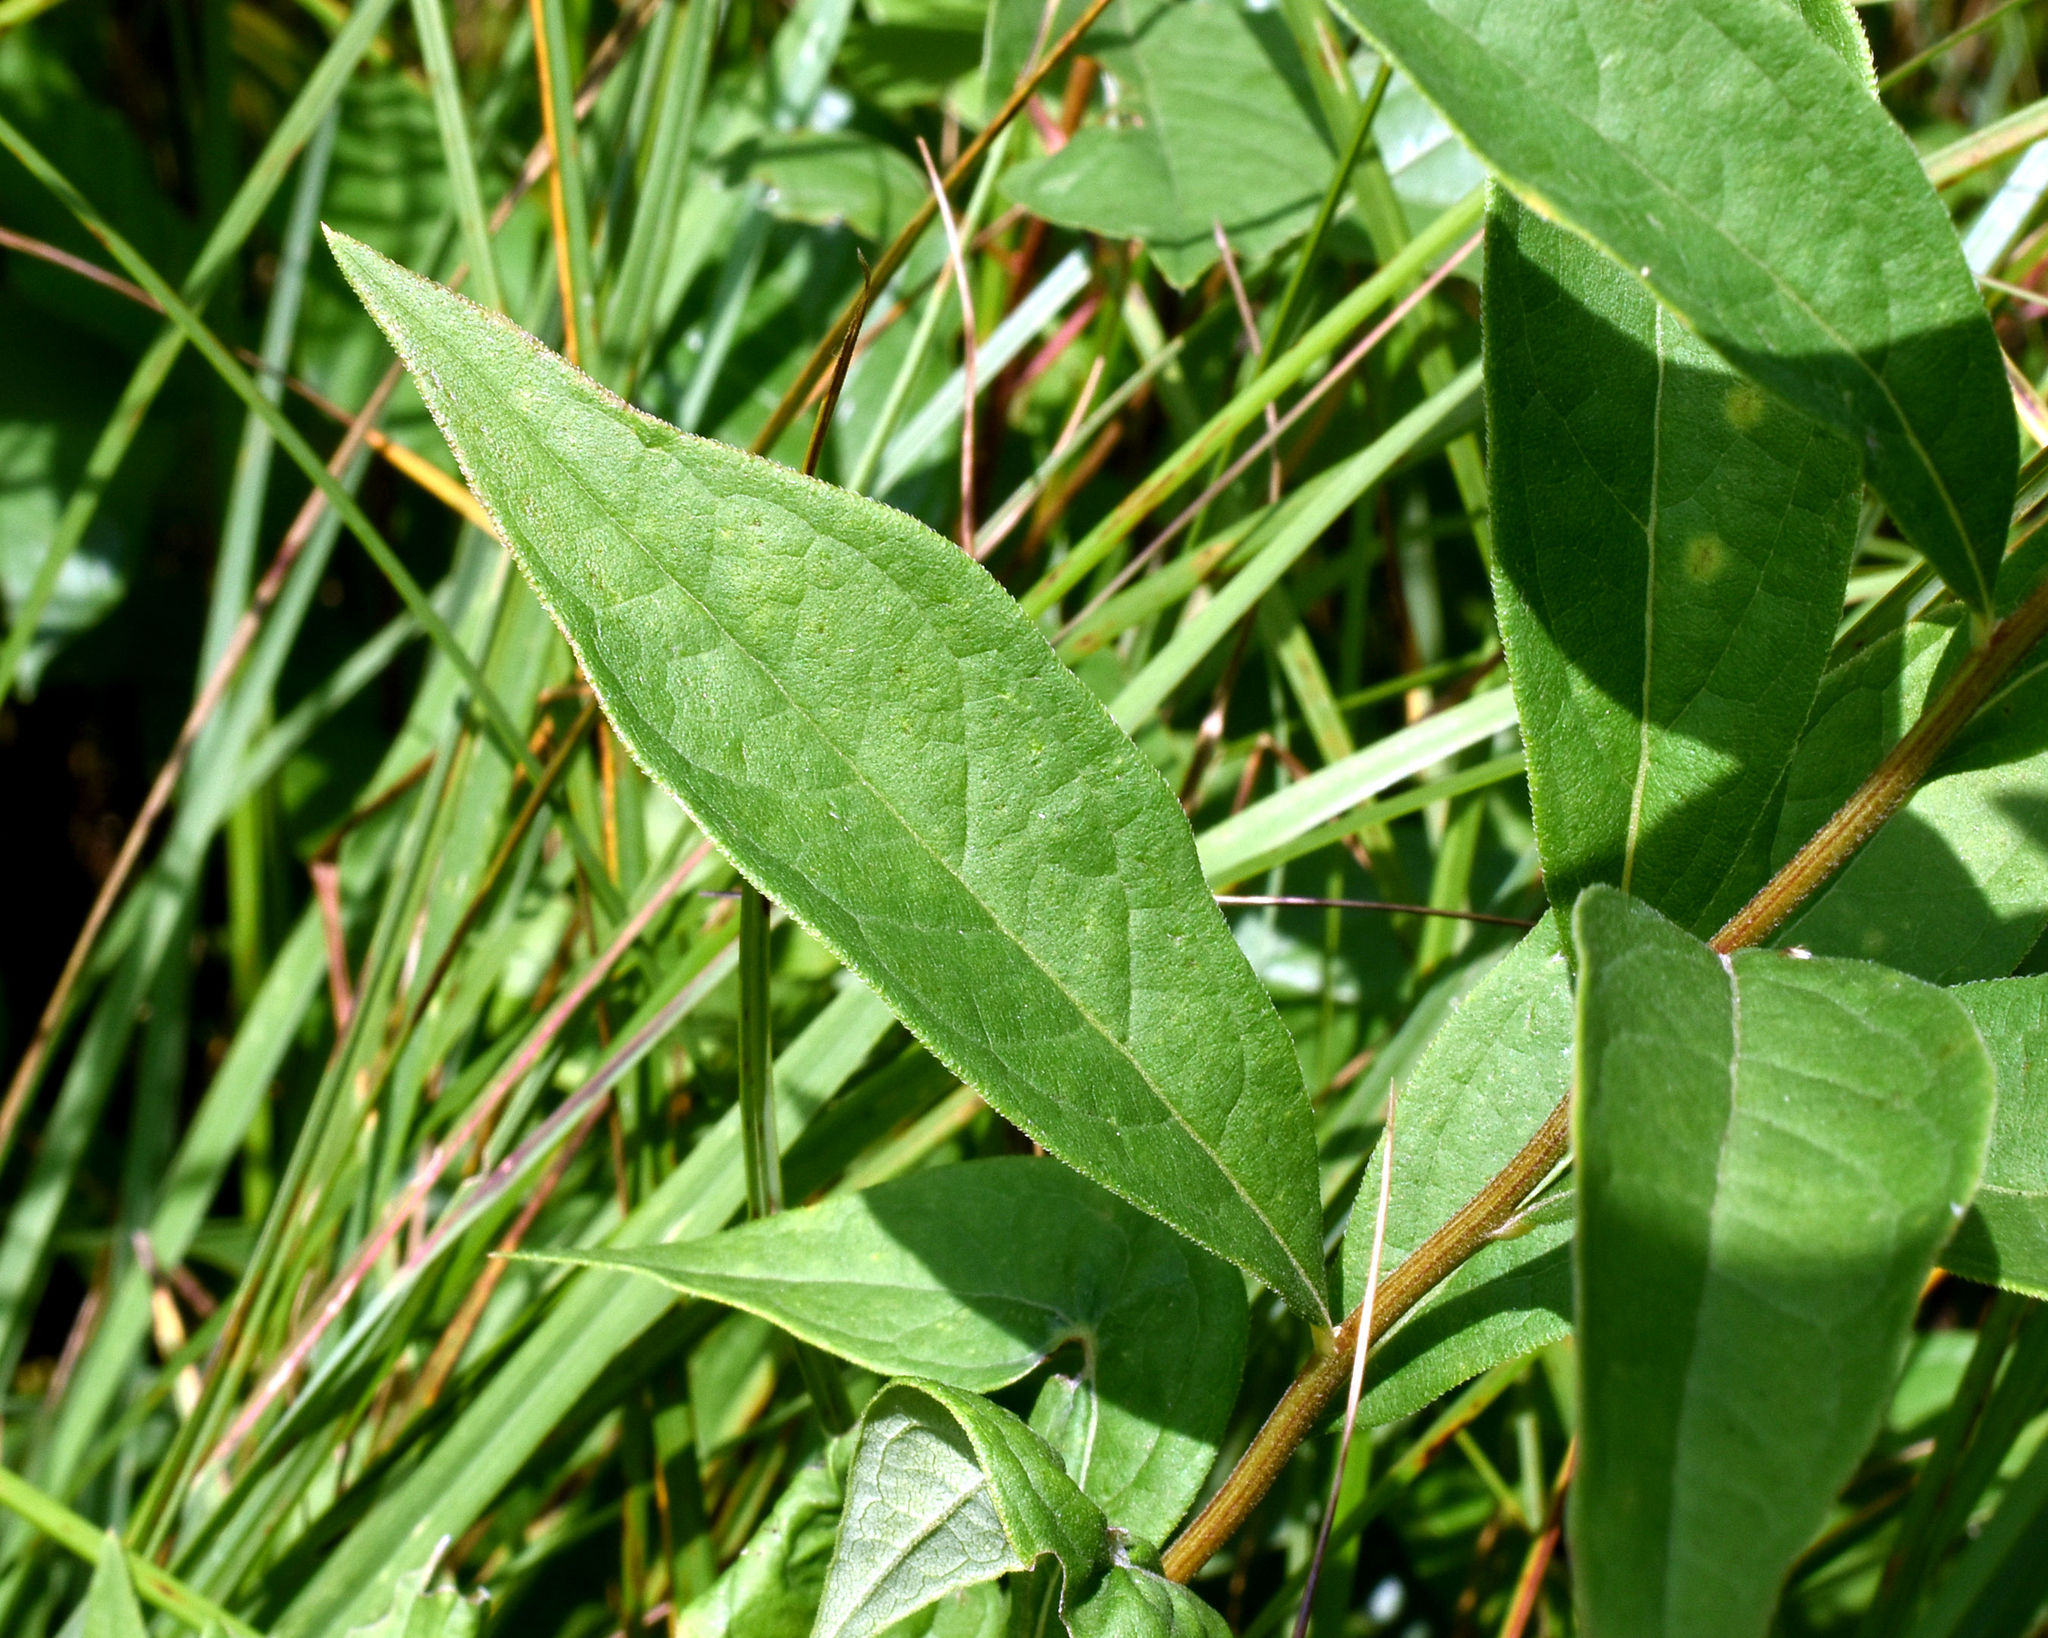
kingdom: Plantae
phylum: Tracheophyta
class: Magnoliopsida
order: Asterales
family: Asteraceae
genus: Doellingeria
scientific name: Doellingeria umbellata
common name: Flat-top white aster
